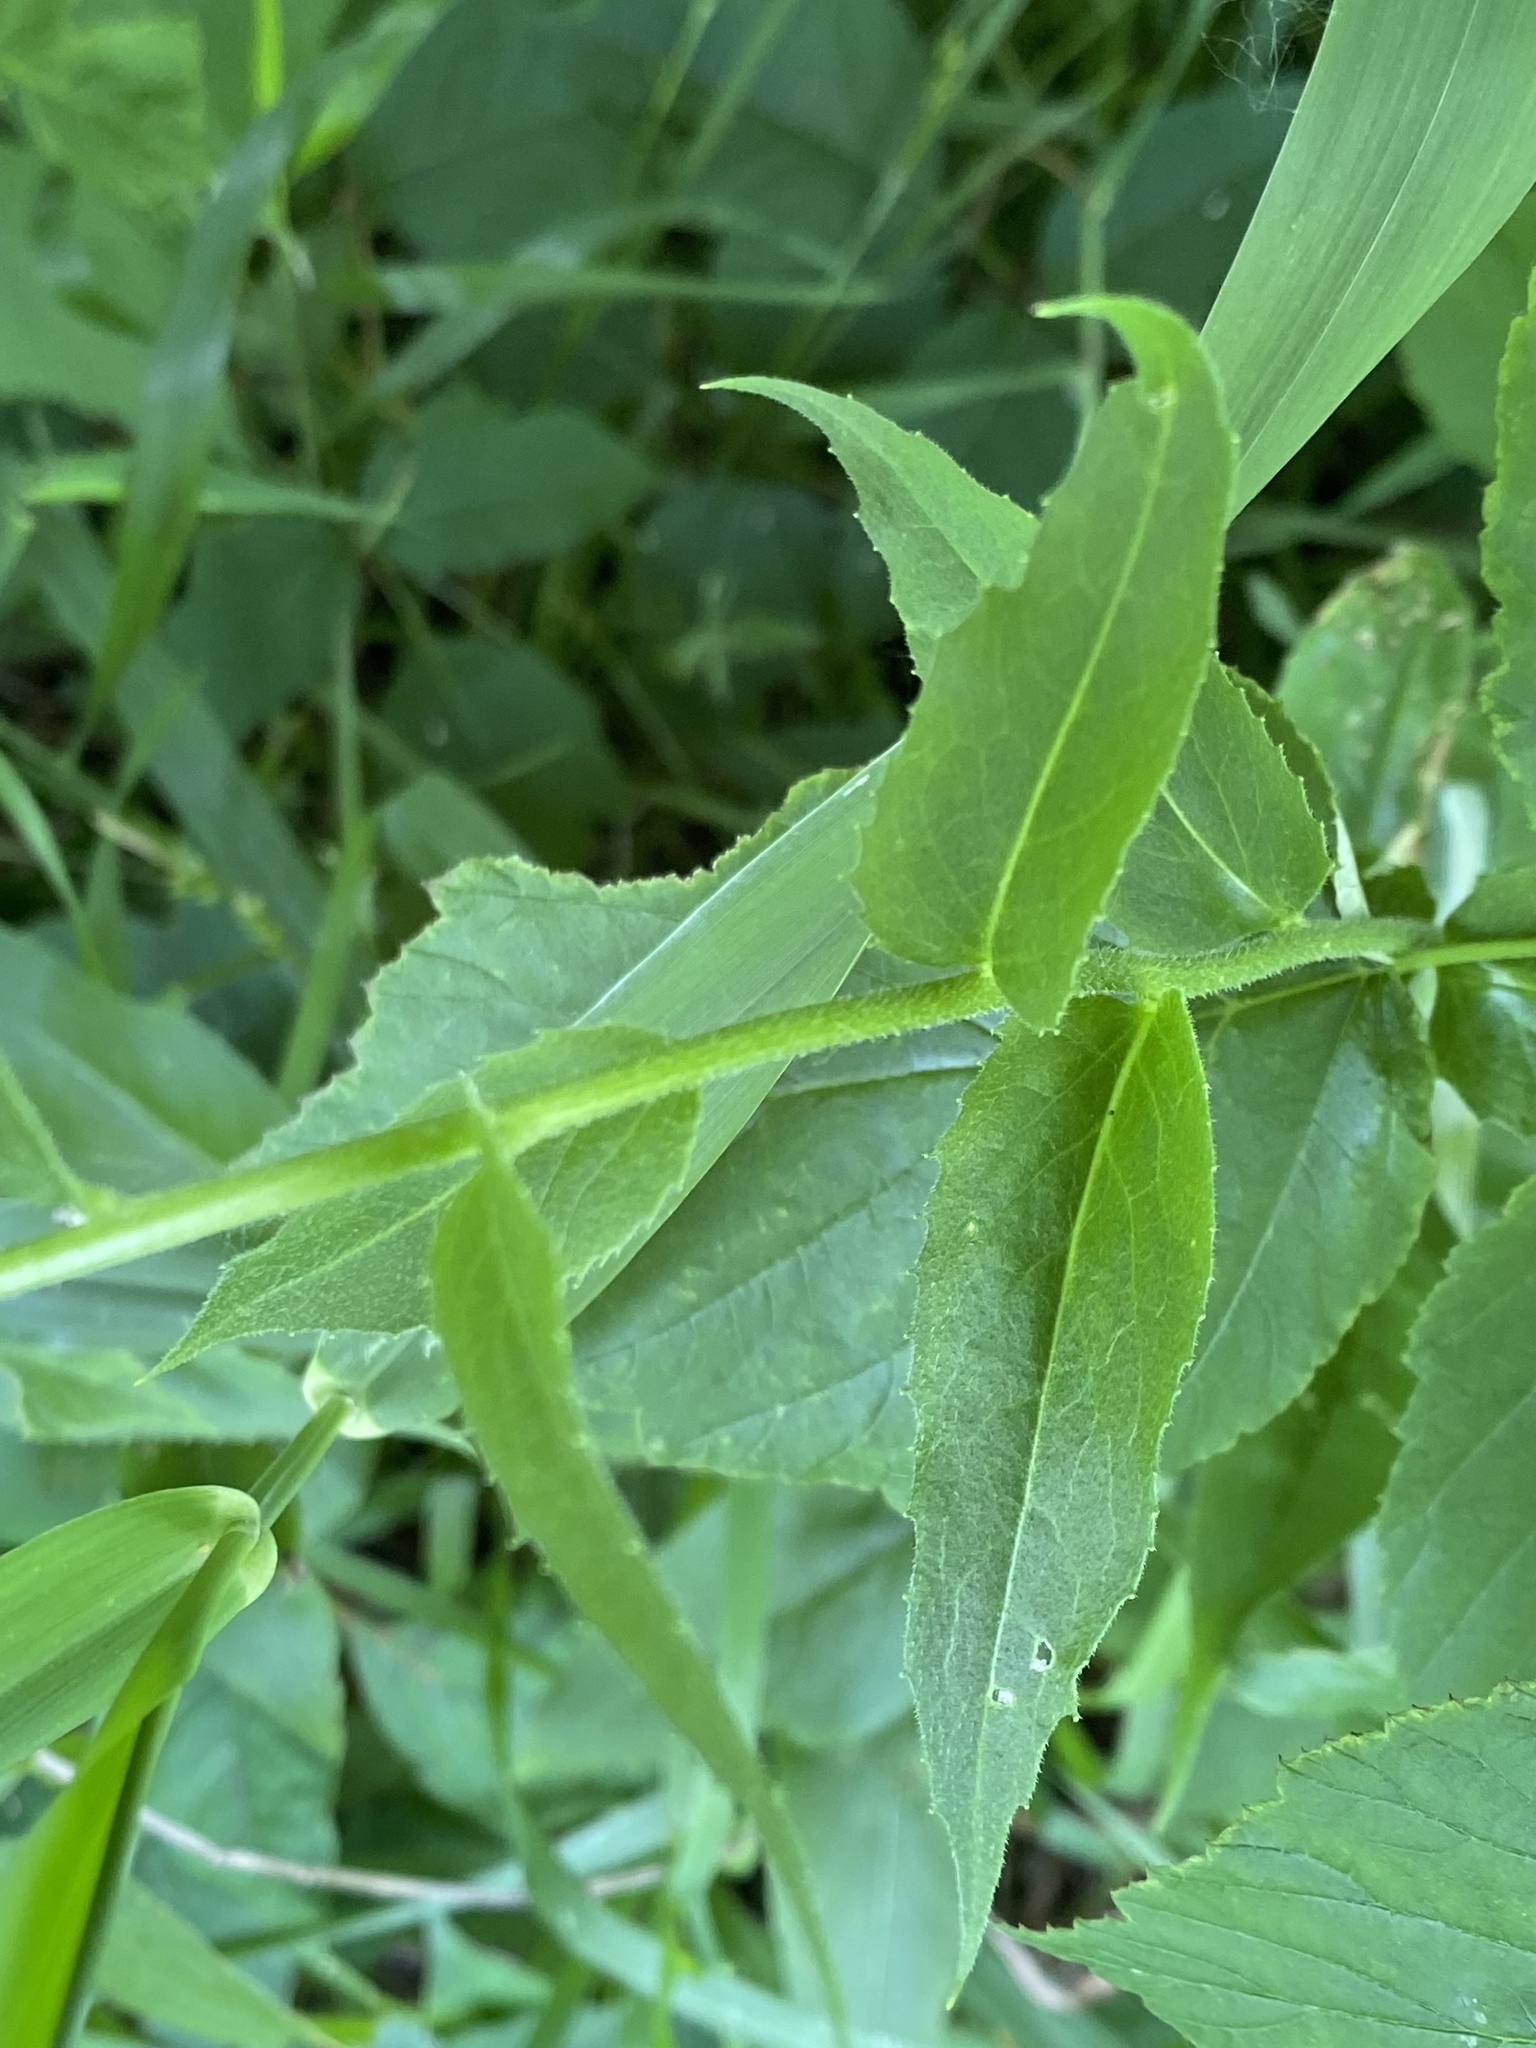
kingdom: Plantae
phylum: Tracheophyta
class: Magnoliopsida
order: Brassicales
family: Brassicaceae
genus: Hesperis
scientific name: Hesperis matronalis
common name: Dame's-violet
